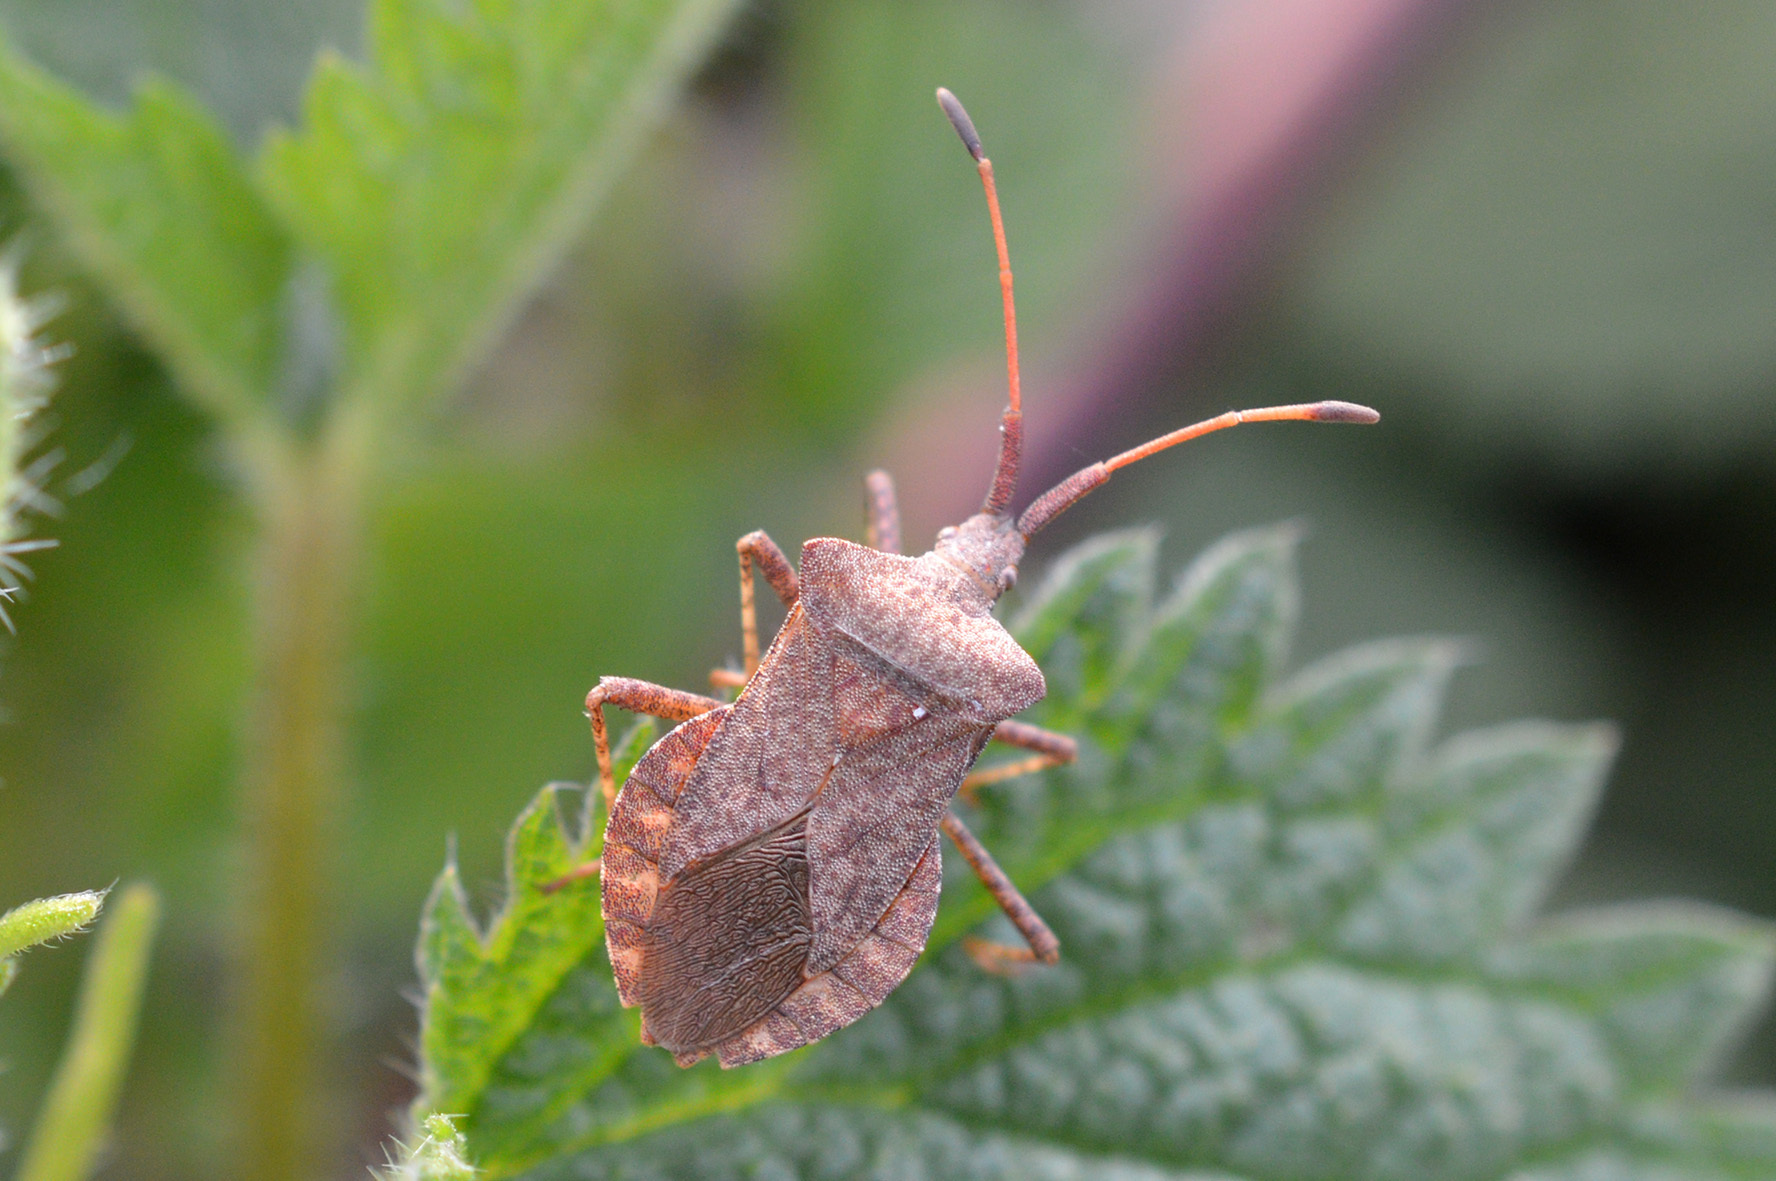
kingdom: Animalia
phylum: Arthropoda
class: Insecta
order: Hemiptera
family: Coreidae
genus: Coreus
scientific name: Coreus marginatus
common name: Dock bug
